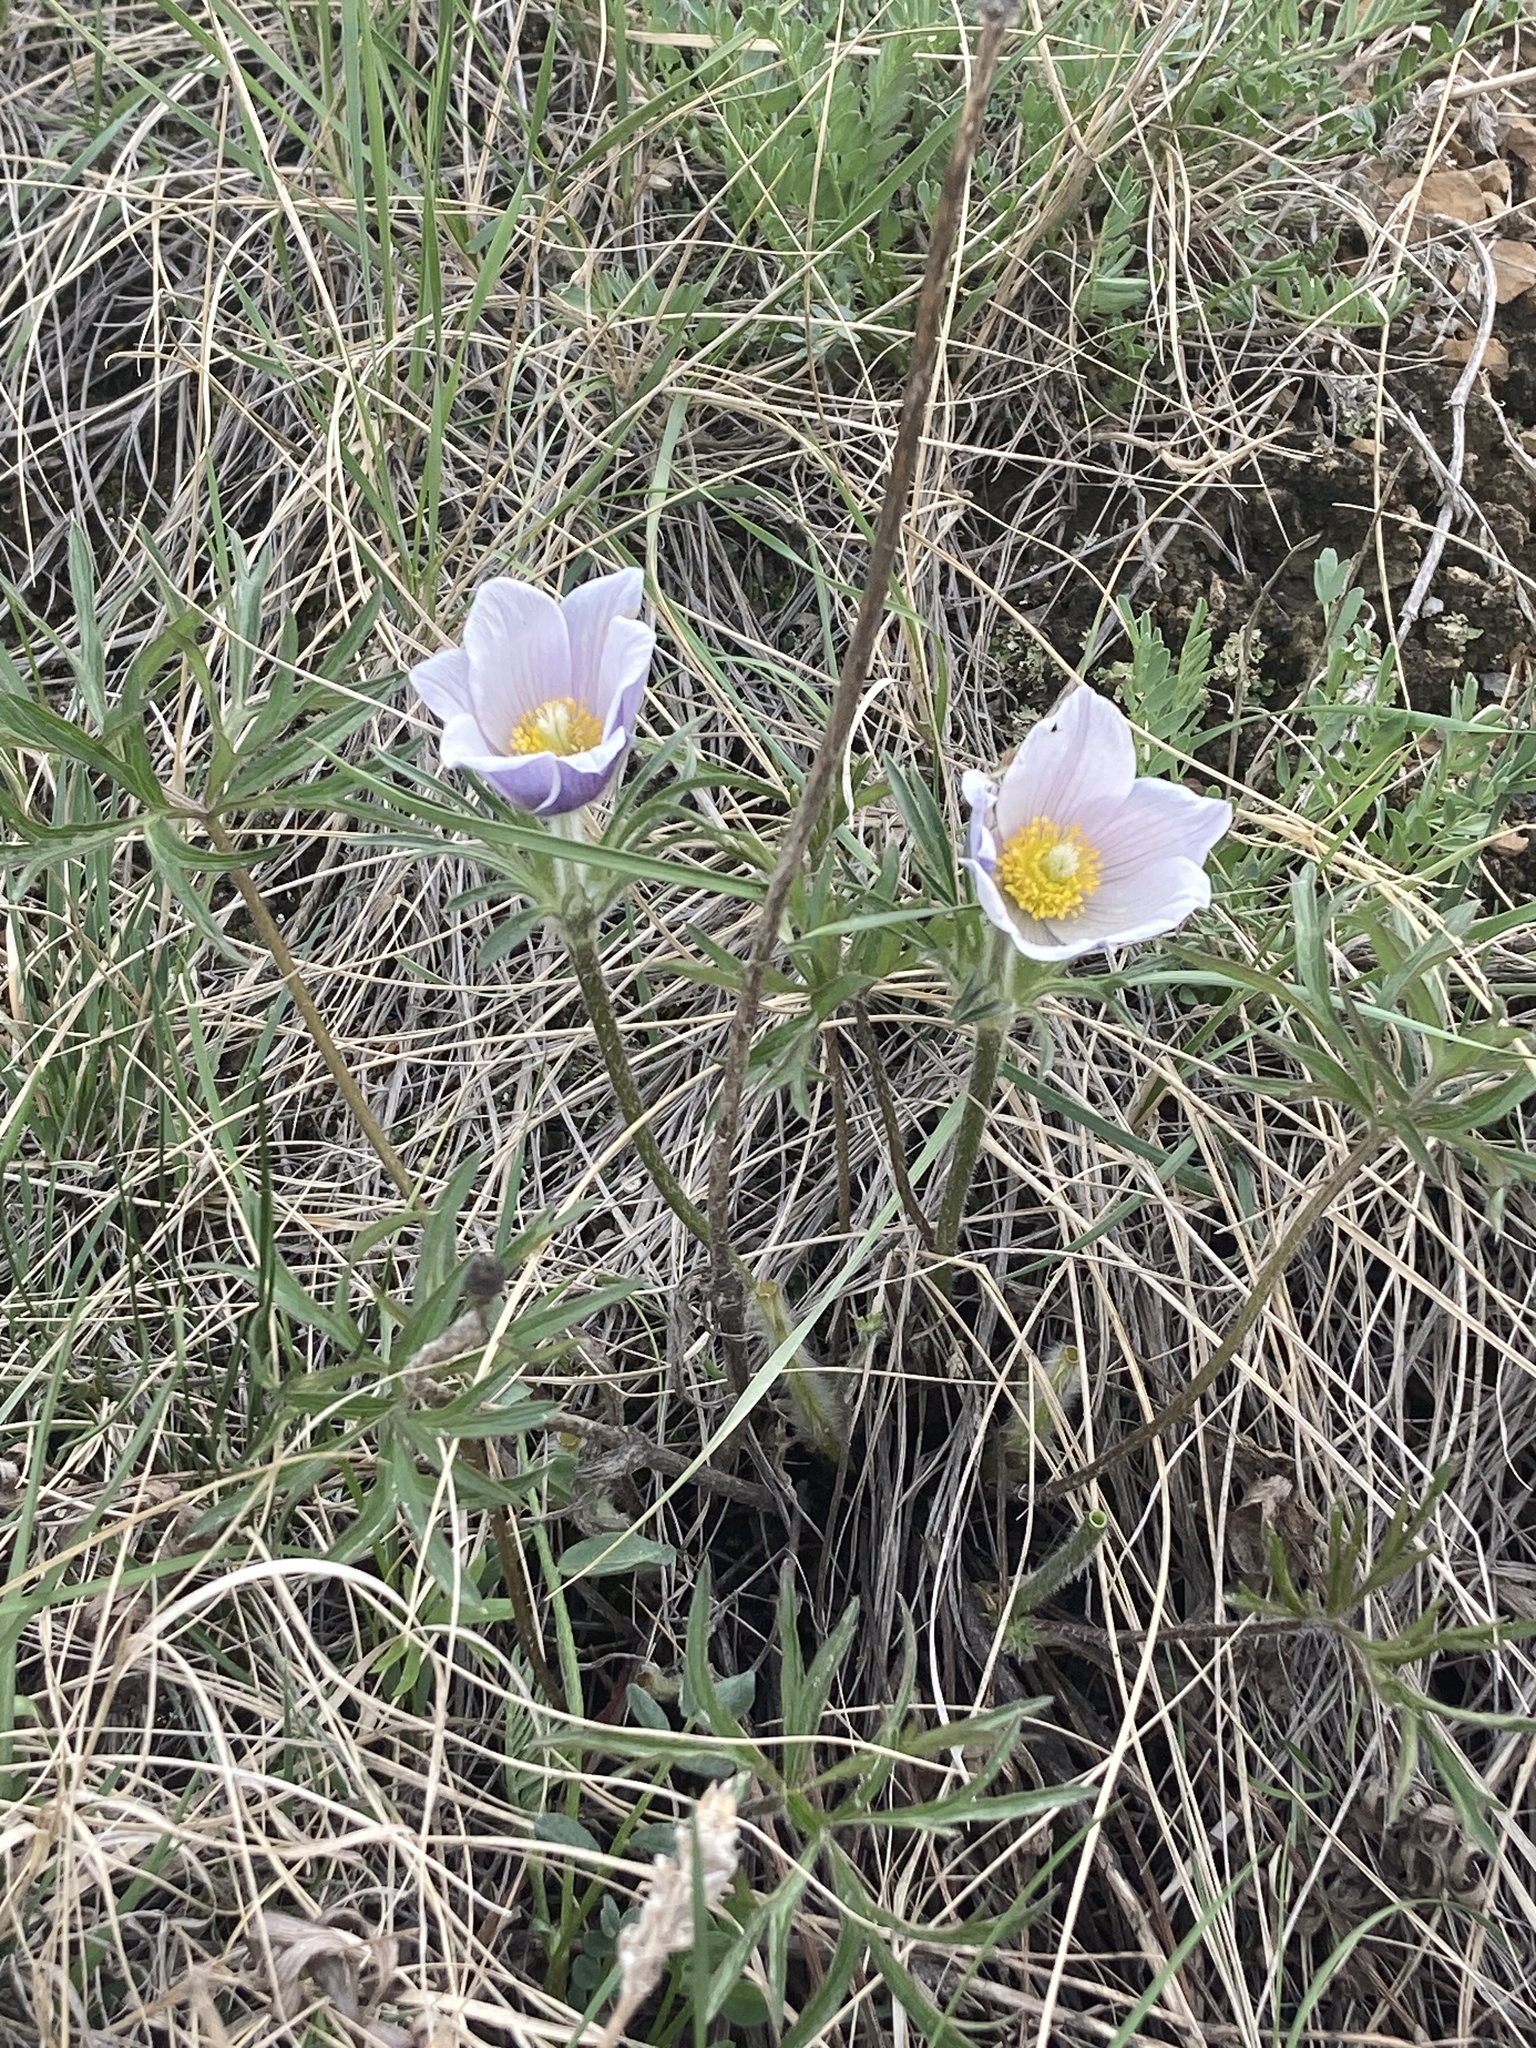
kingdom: Plantae
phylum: Tracheophyta
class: Magnoliopsida
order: Ranunculales
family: Ranunculaceae
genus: Pulsatilla
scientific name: Pulsatilla nuttalliana
